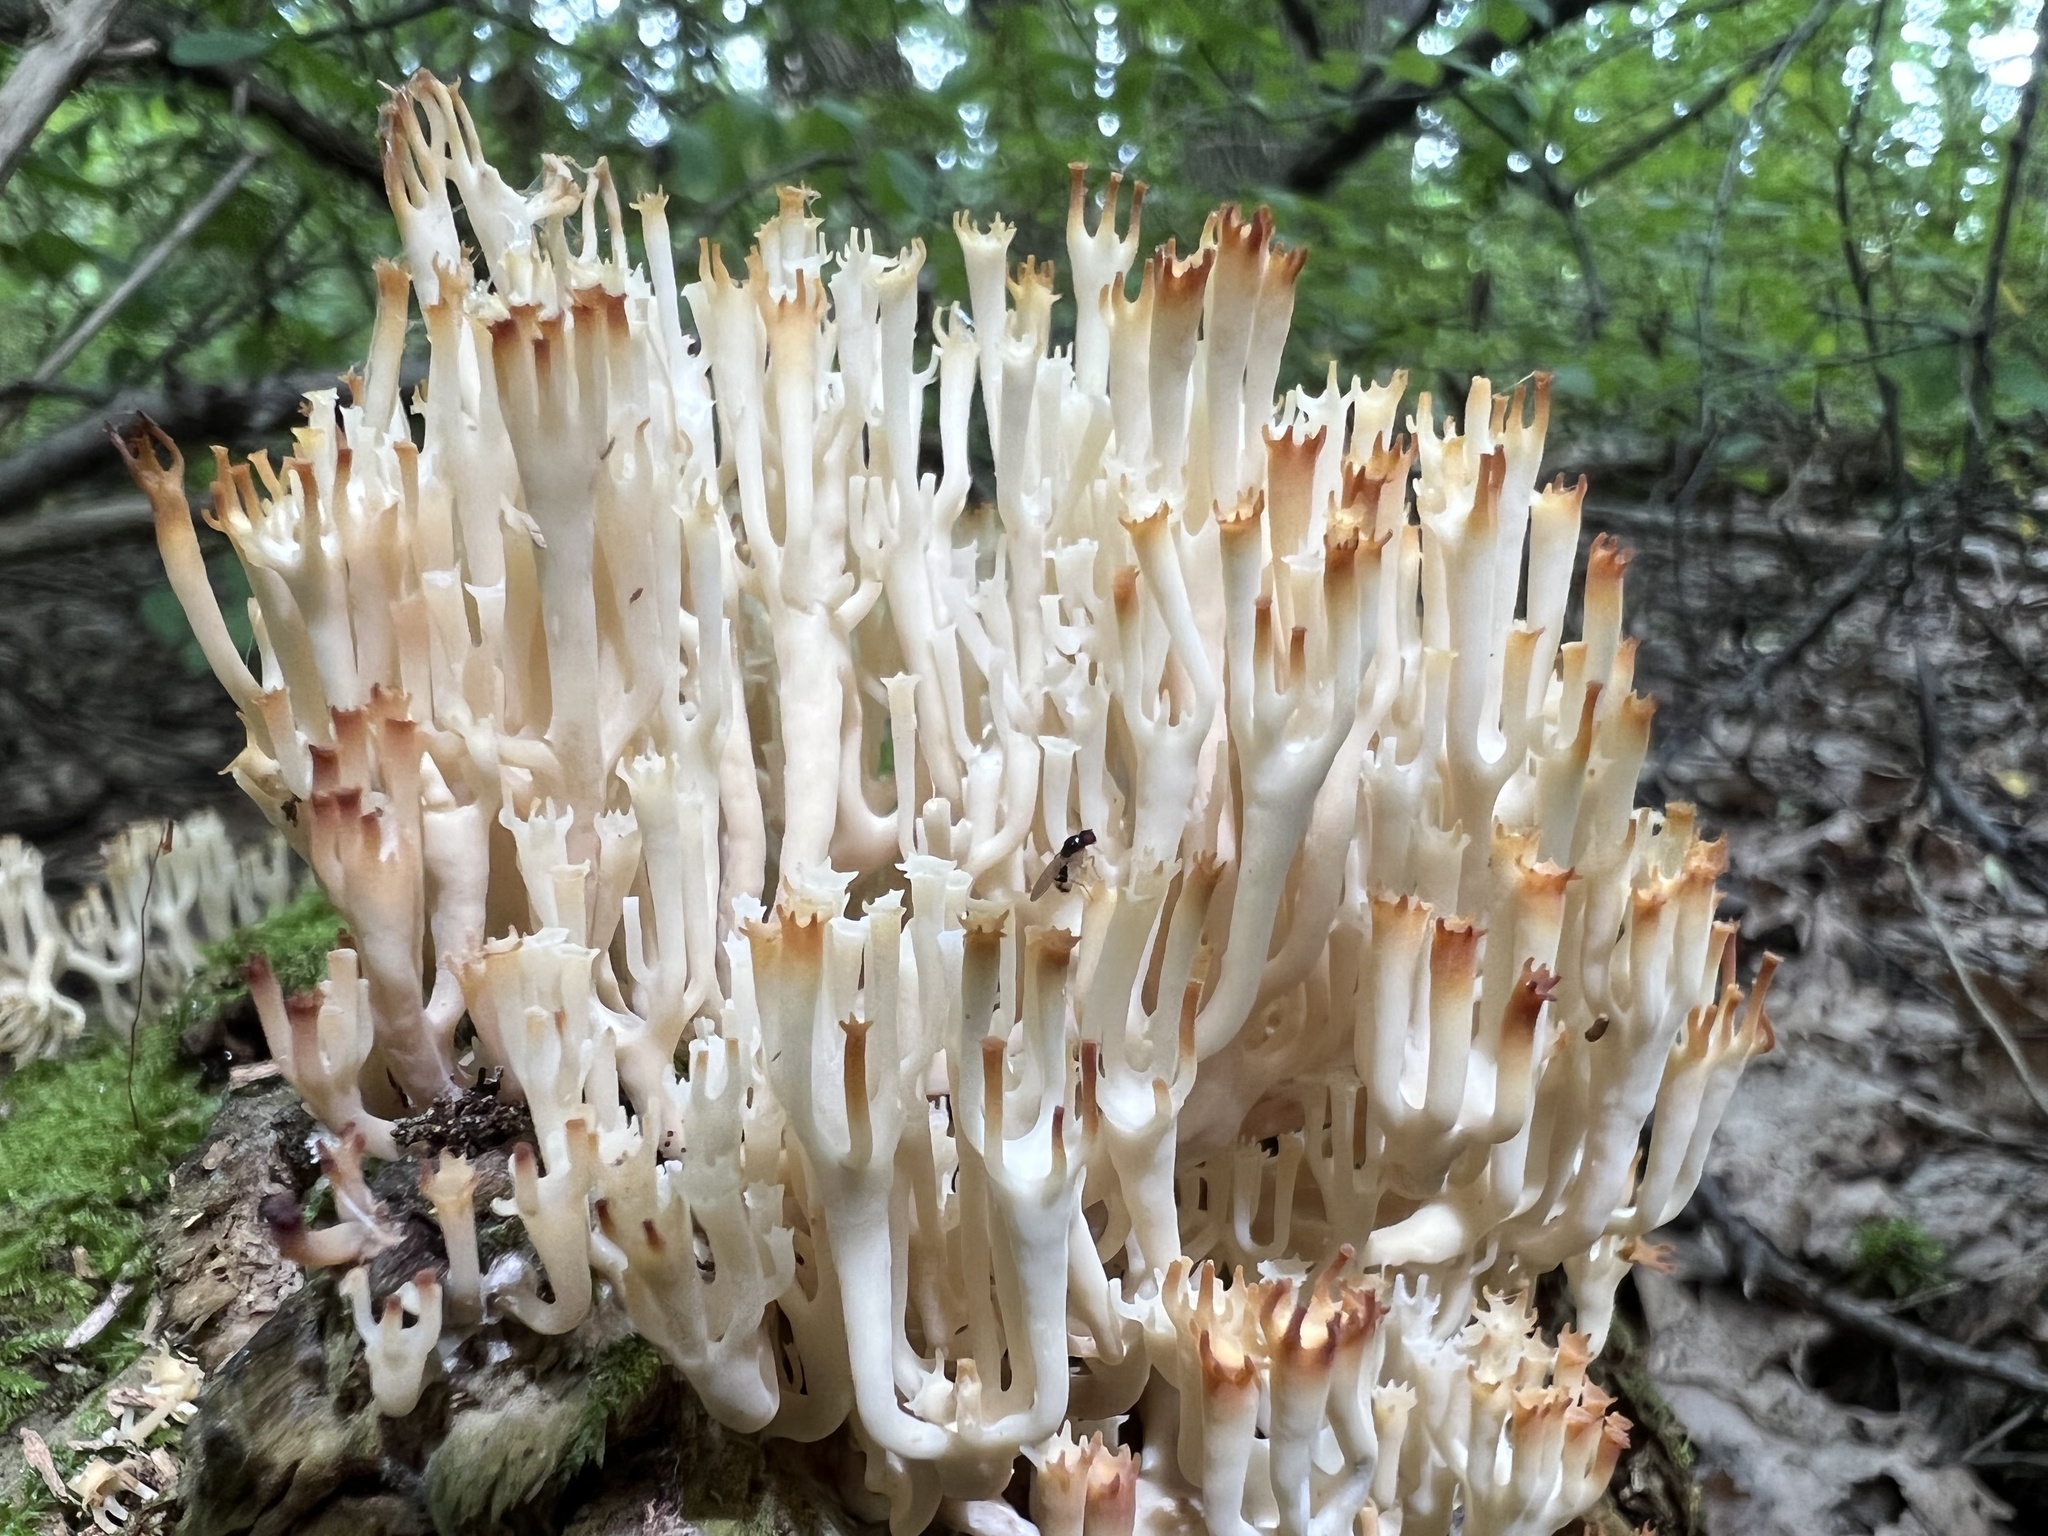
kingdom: Fungi
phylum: Basidiomycota
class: Agaricomycetes
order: Russulales
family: Auriscalpiaceae
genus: Artomyces
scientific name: Artomyces pyxidatus
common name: Crown-tipped coral fungus
